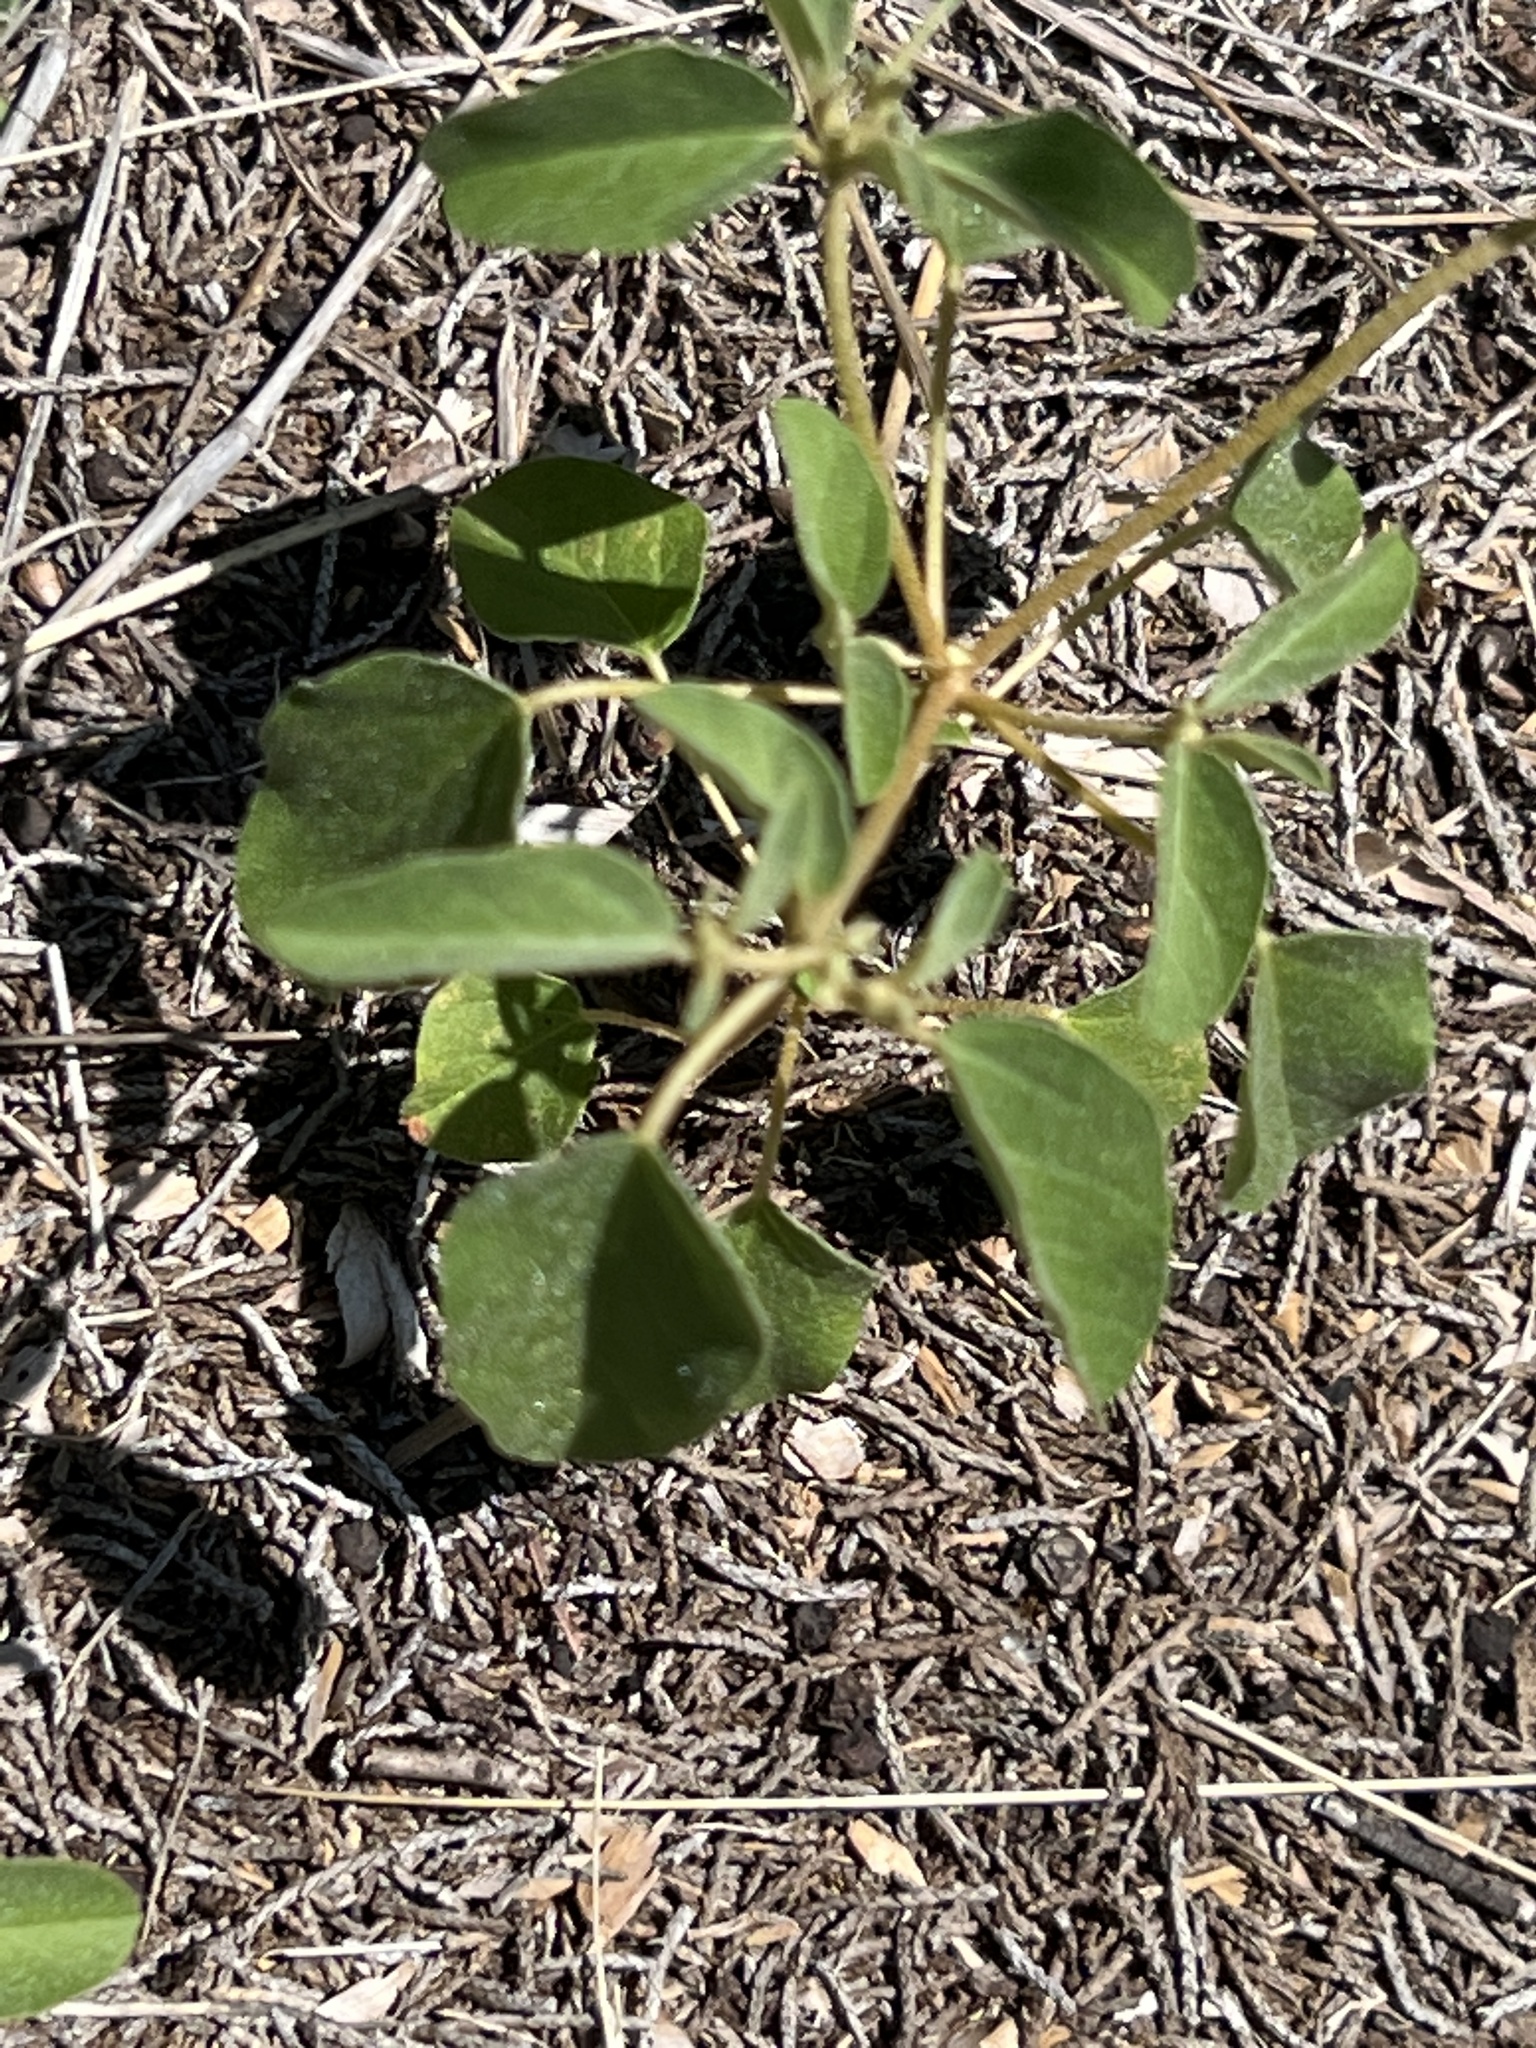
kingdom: Plantae
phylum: Tracheophyta
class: Magnoliopsida
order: Malpighiales
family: Euphorbiaceae
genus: Croton
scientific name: Croton monanthogynus
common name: One-seed croton
